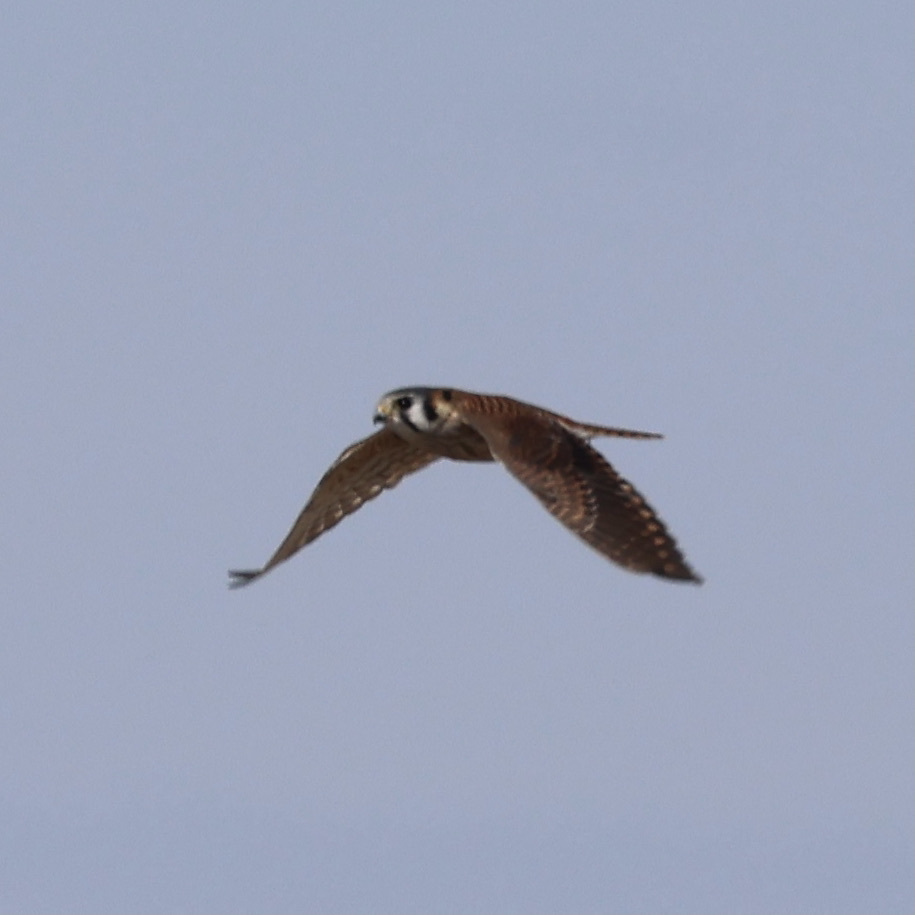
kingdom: Animalia
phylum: Chordata
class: Aves
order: Falconiformes
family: Falconidae
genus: Falco
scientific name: Falco sparverius
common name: American kestrel
